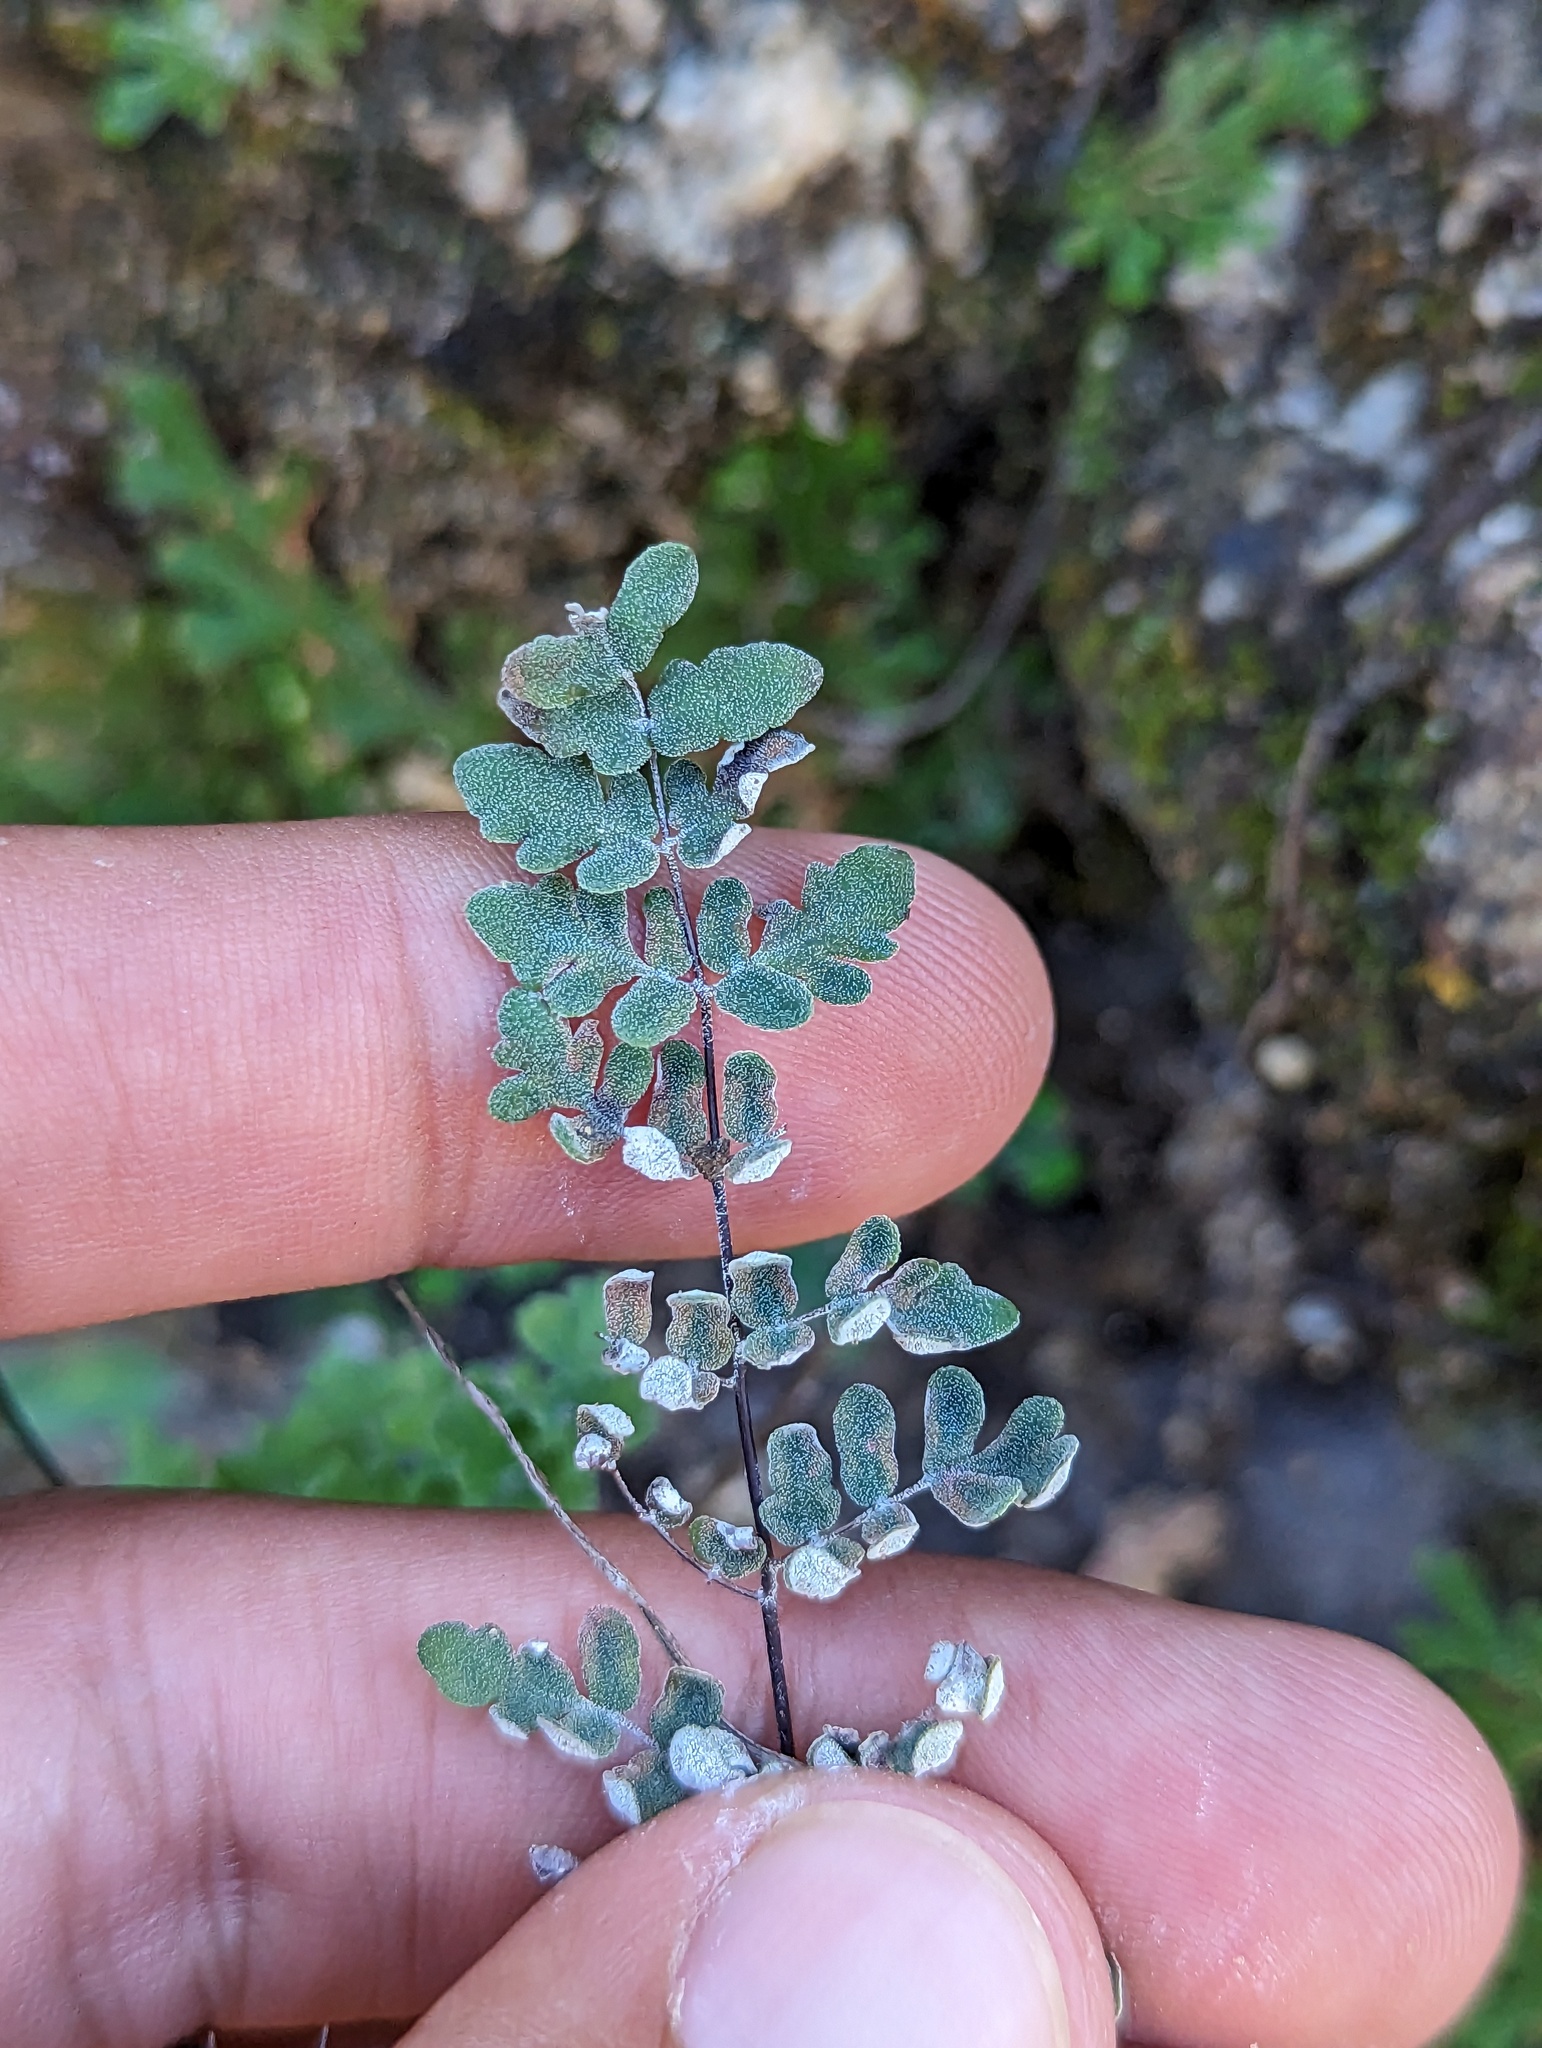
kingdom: Plantae
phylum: Tracheophyta
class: Polypodiopsida
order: Polypodiales
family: Pteridaceae
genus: Argyrochosma
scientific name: Argyrochosma peninsularis
